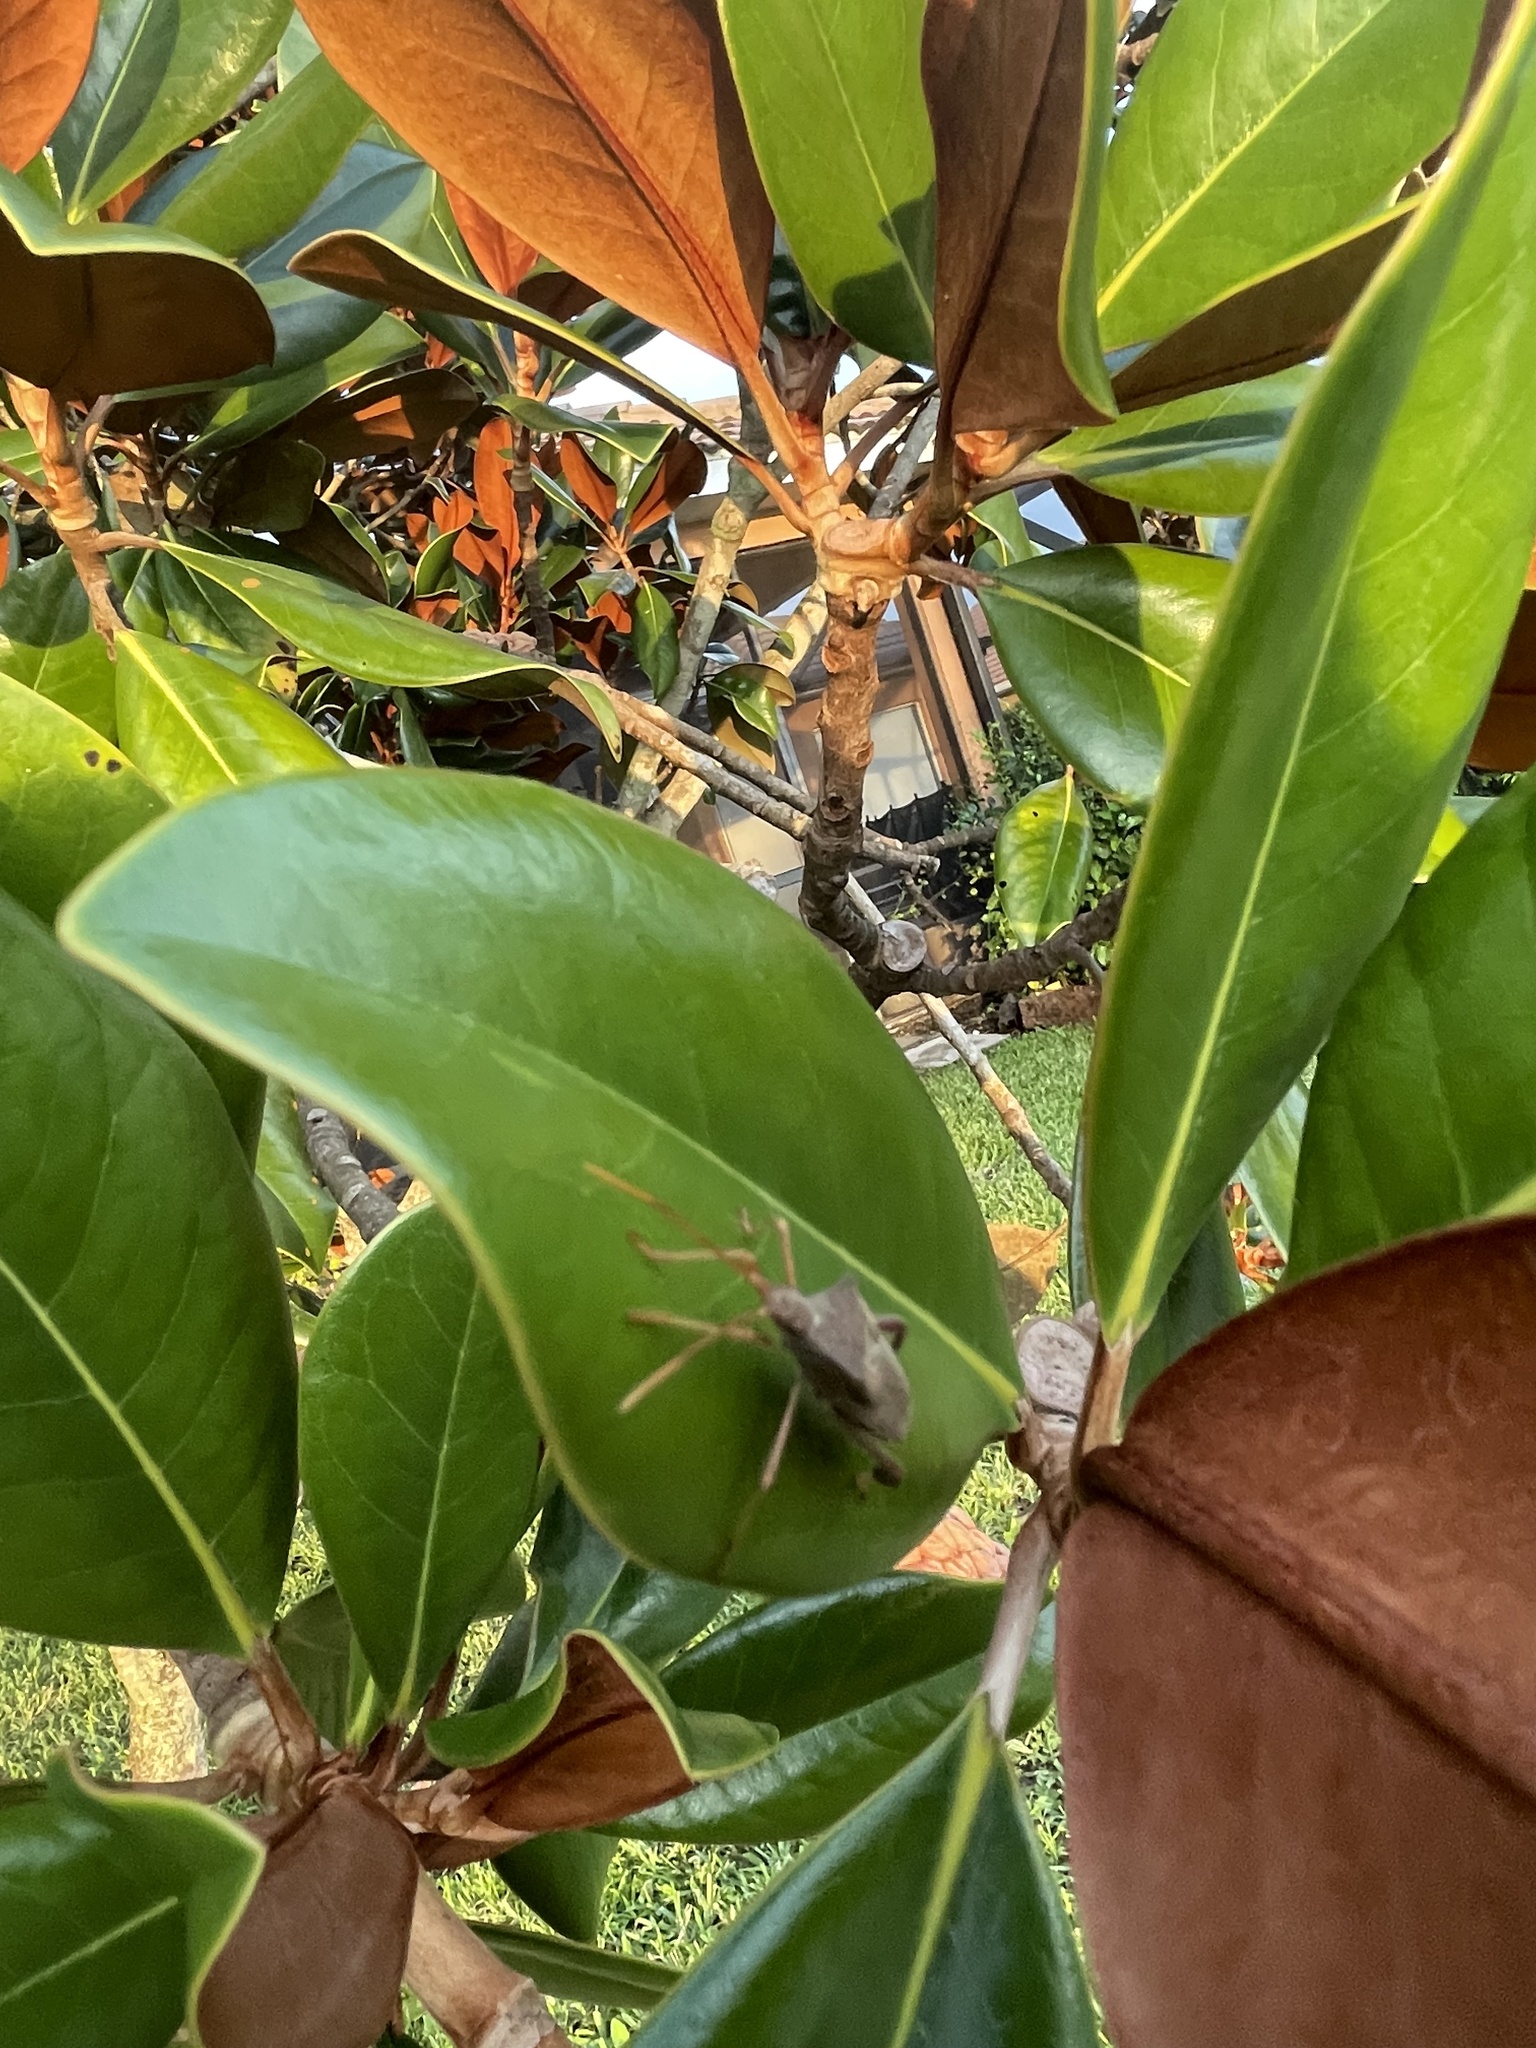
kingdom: Animalia
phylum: Arthropoda
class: Insecta
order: Hemiptera
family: Coreidae
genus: Leptoglossus
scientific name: Leptoglossus fulvicornis
